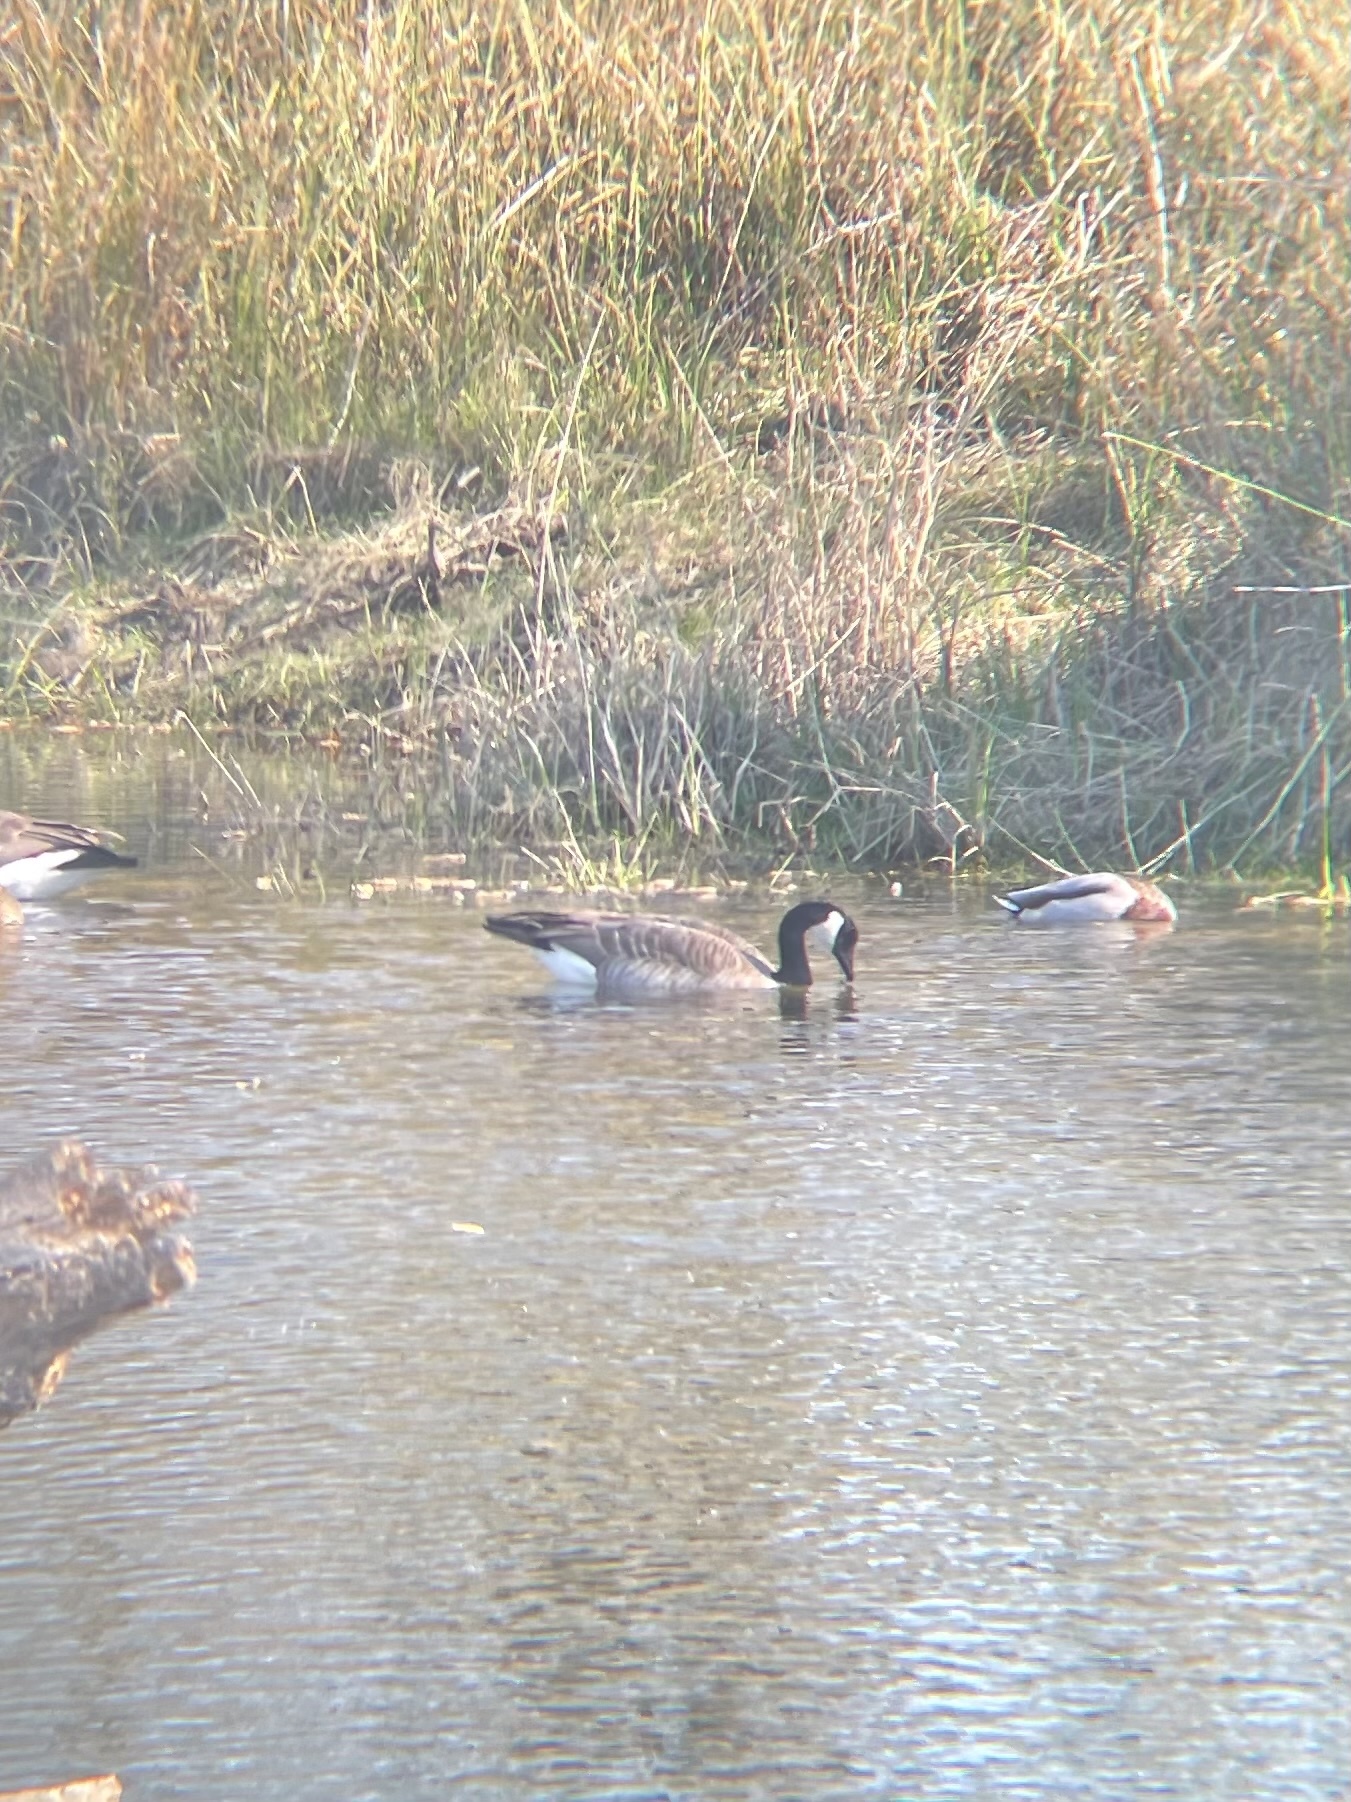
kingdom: Animalia
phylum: Chordata
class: Aves
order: Anseriformes
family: Anatidae
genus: Branta
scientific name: Branta canadensis
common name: Canada goose
